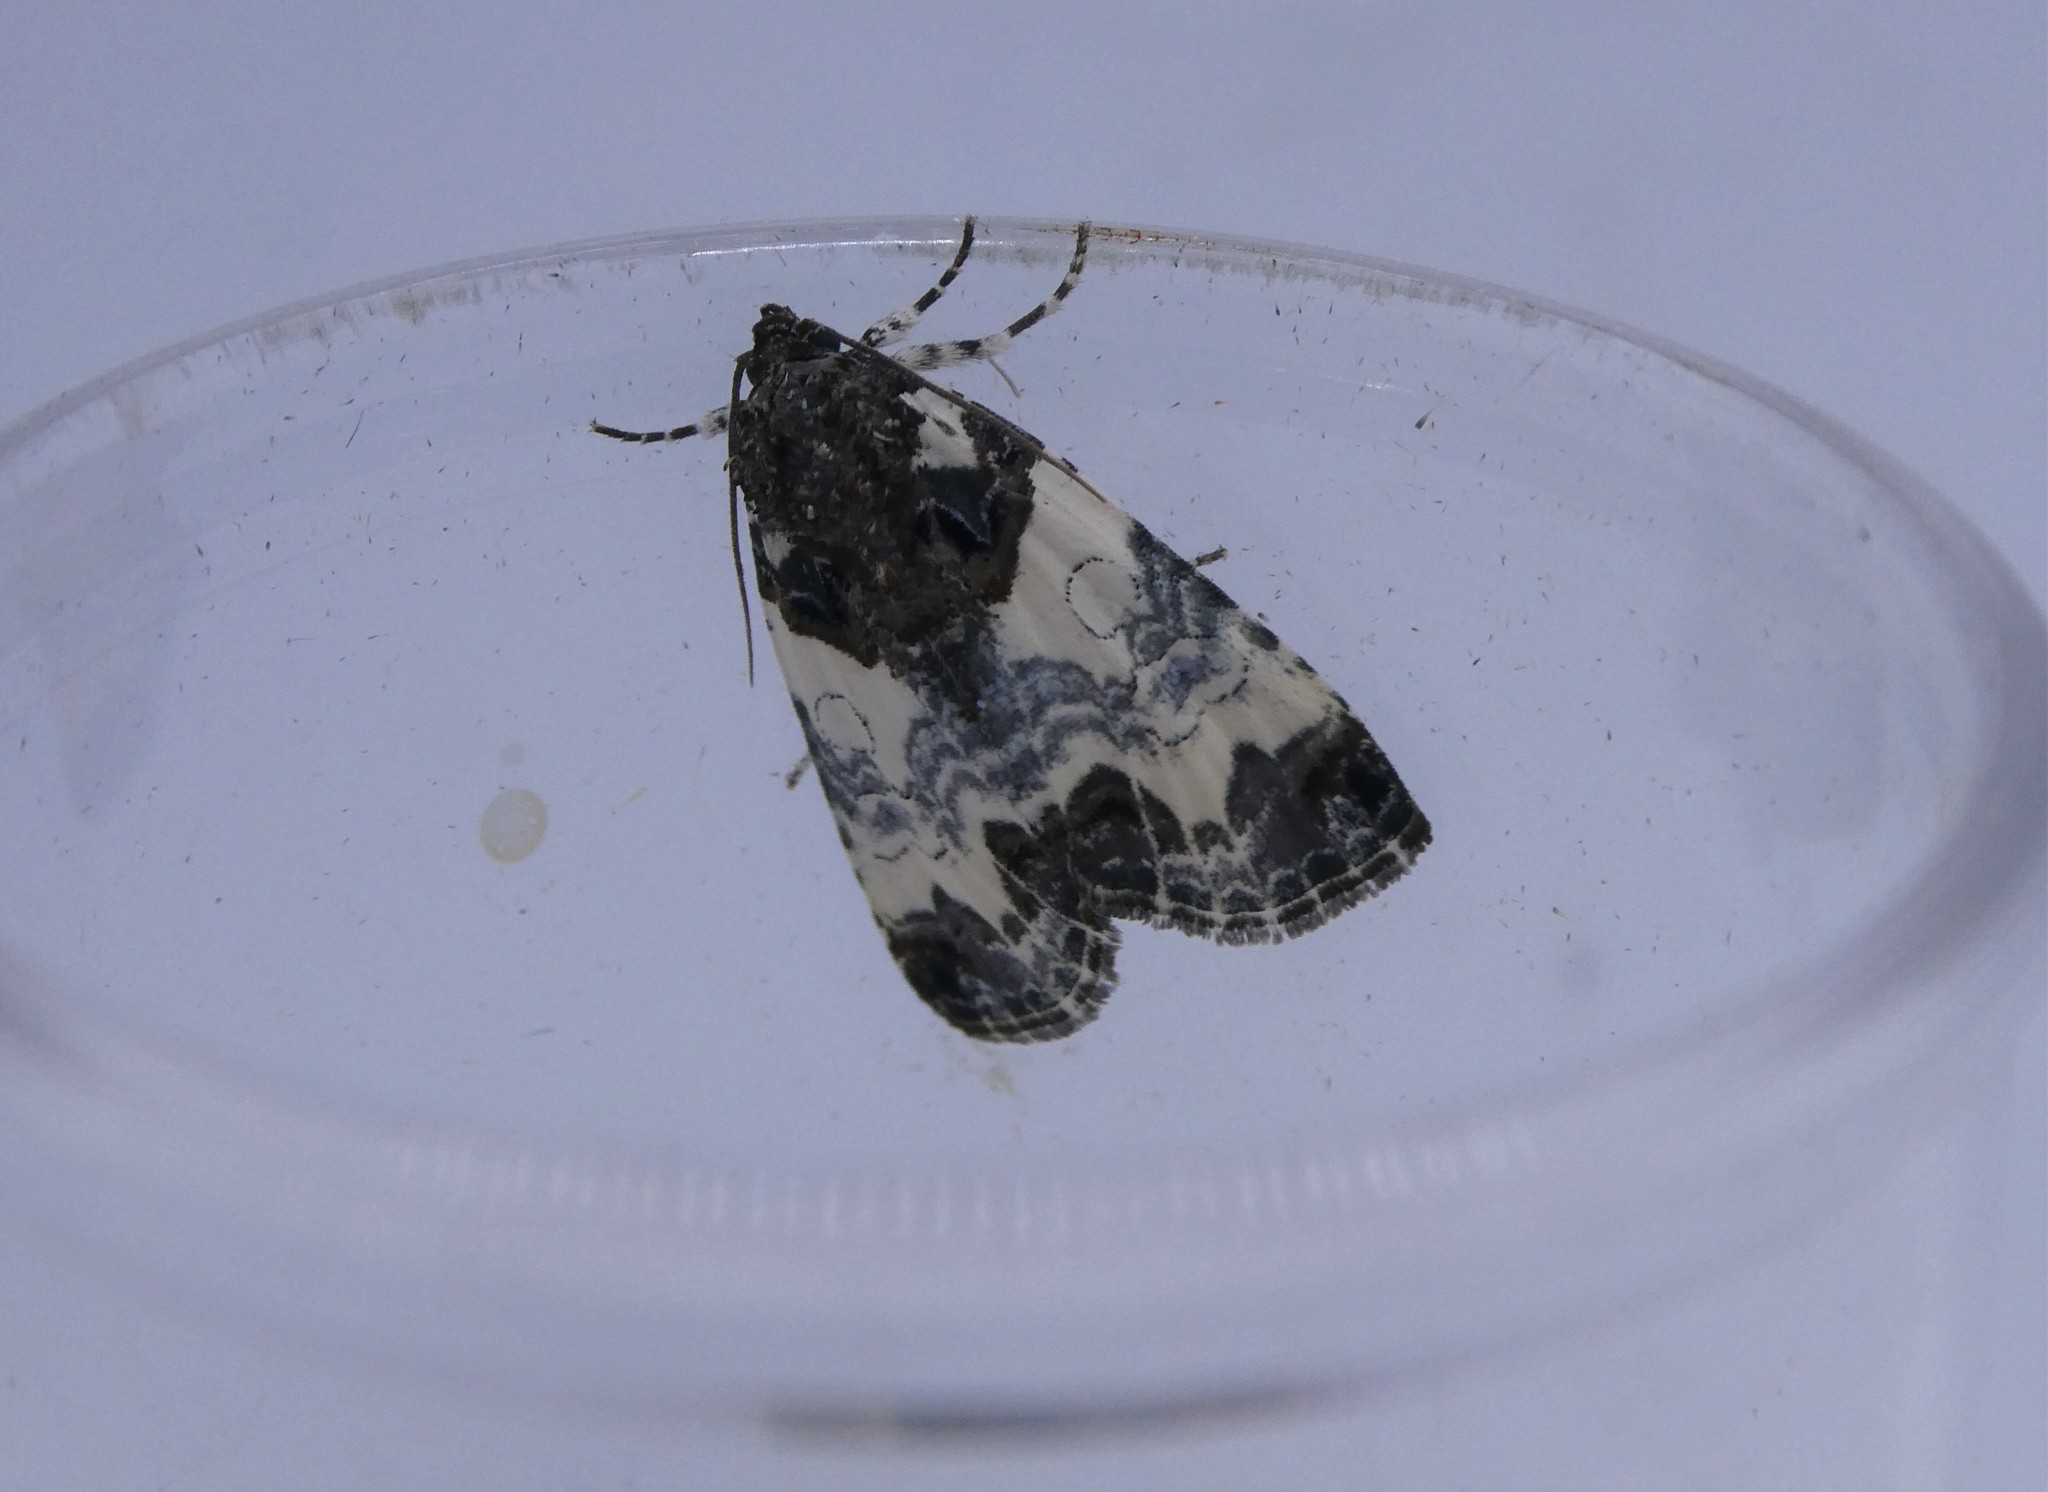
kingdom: Animalia
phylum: Arthropoda
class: Insecta
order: Lepidoptera
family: Noctuidae
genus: Cerma
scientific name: Cerma cerintha
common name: Tufted bird-dropping moth
